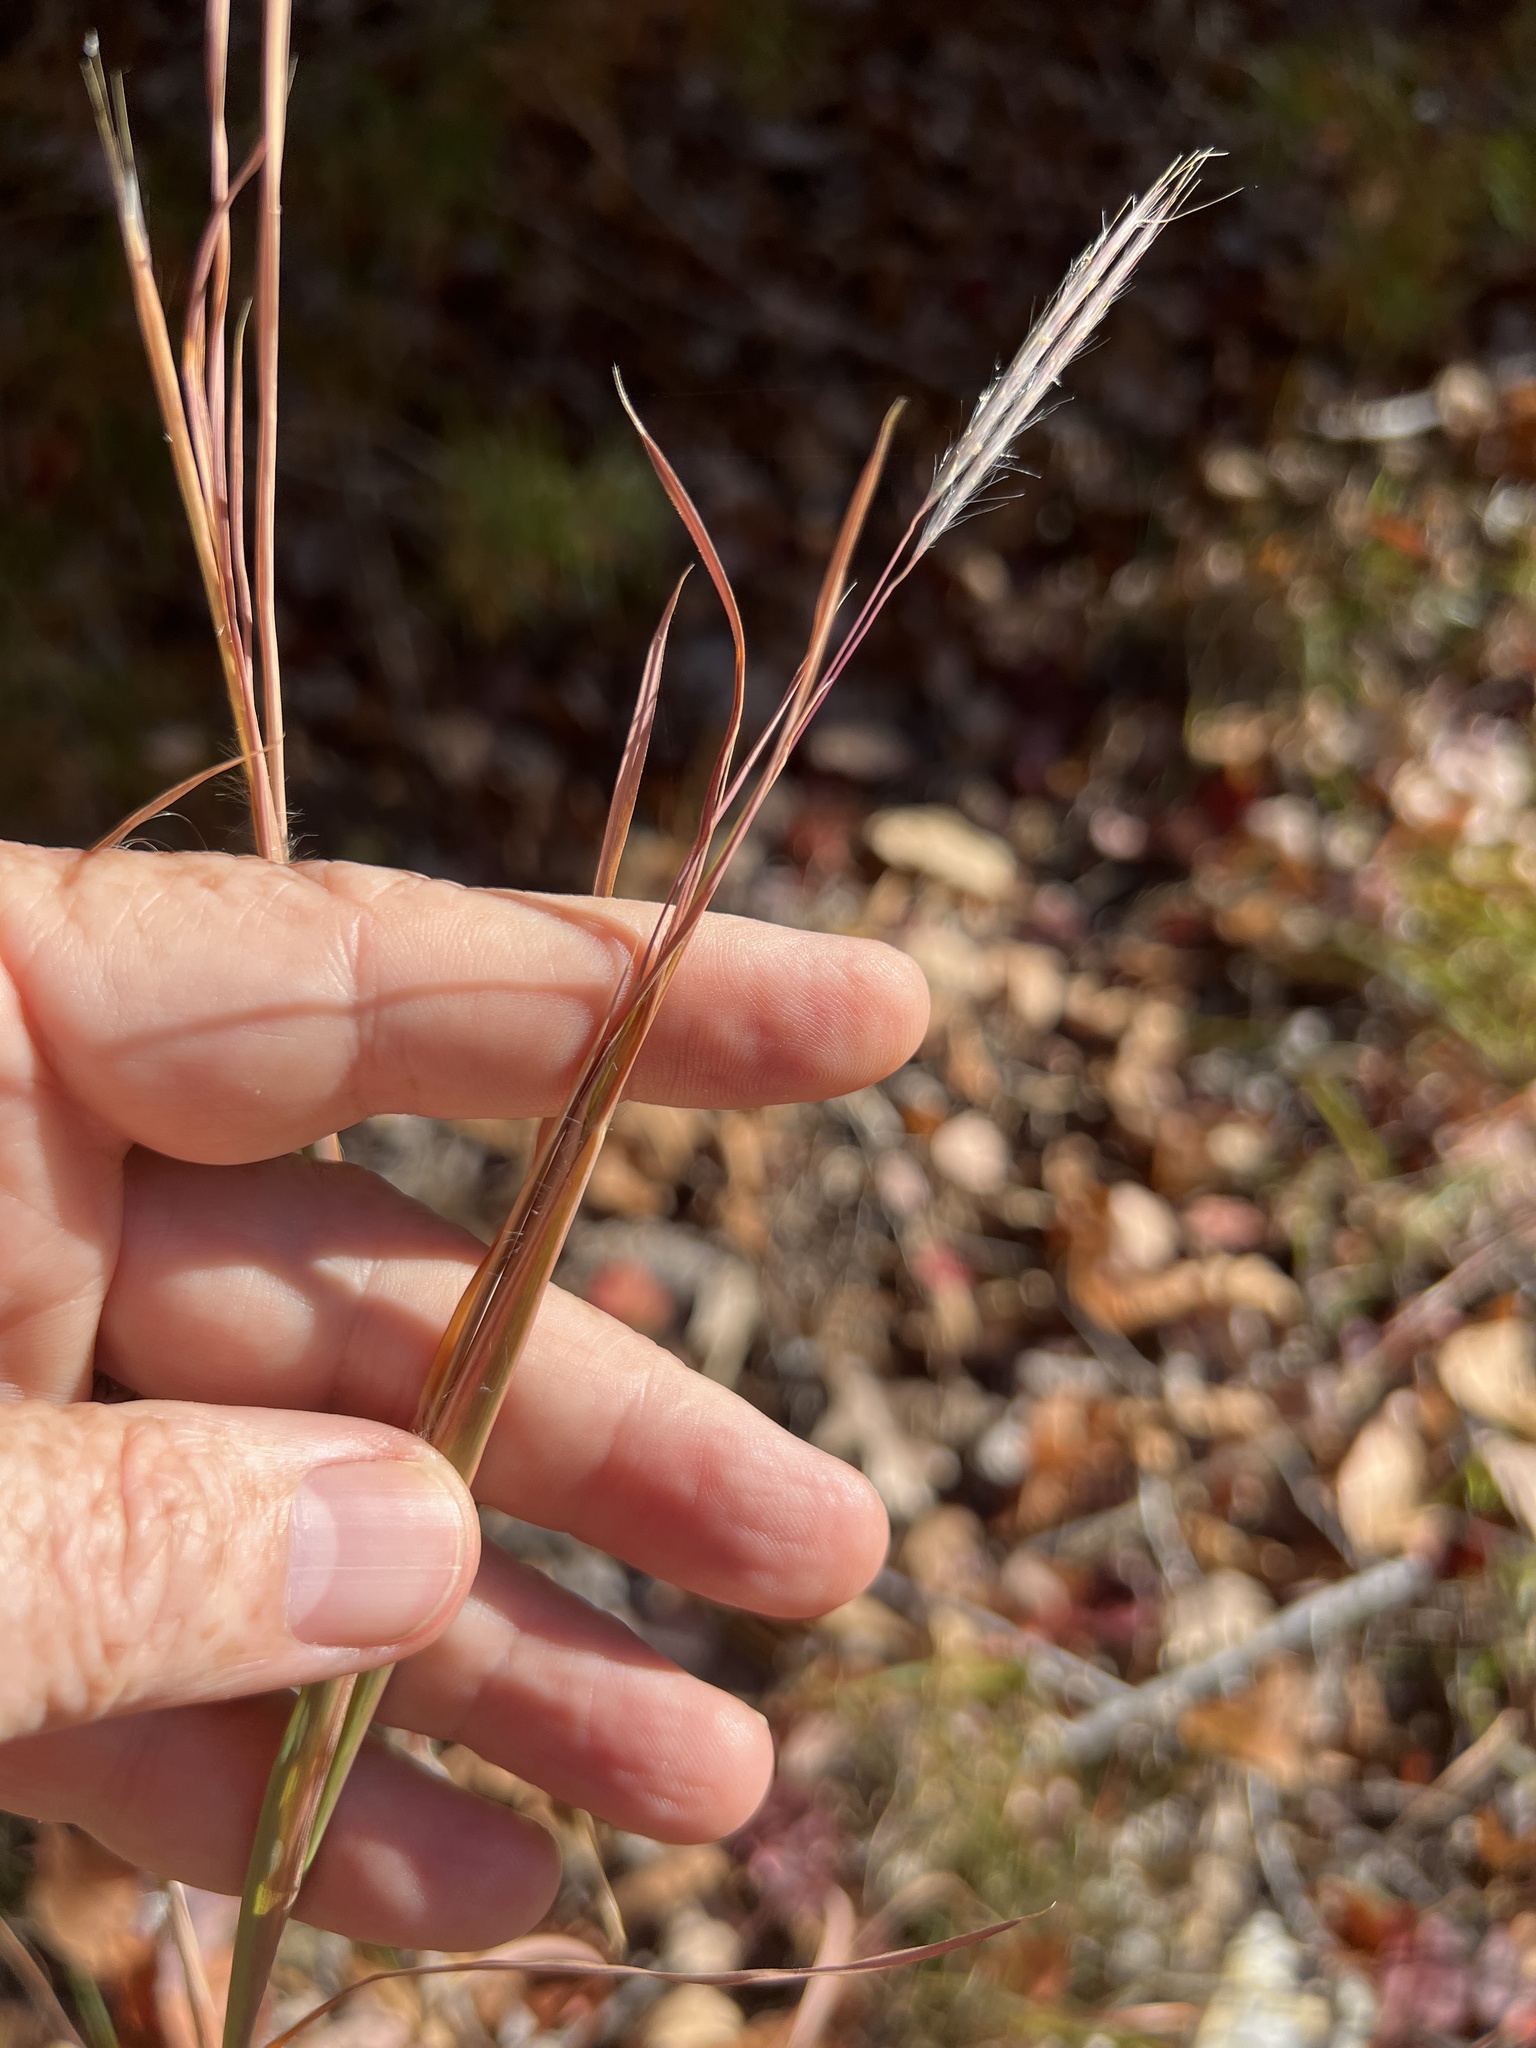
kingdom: Plantae
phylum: Tracheophyta
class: Liliopsida
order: Poales
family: Poaceae
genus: Andropogon
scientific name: Andropogon gyrans
